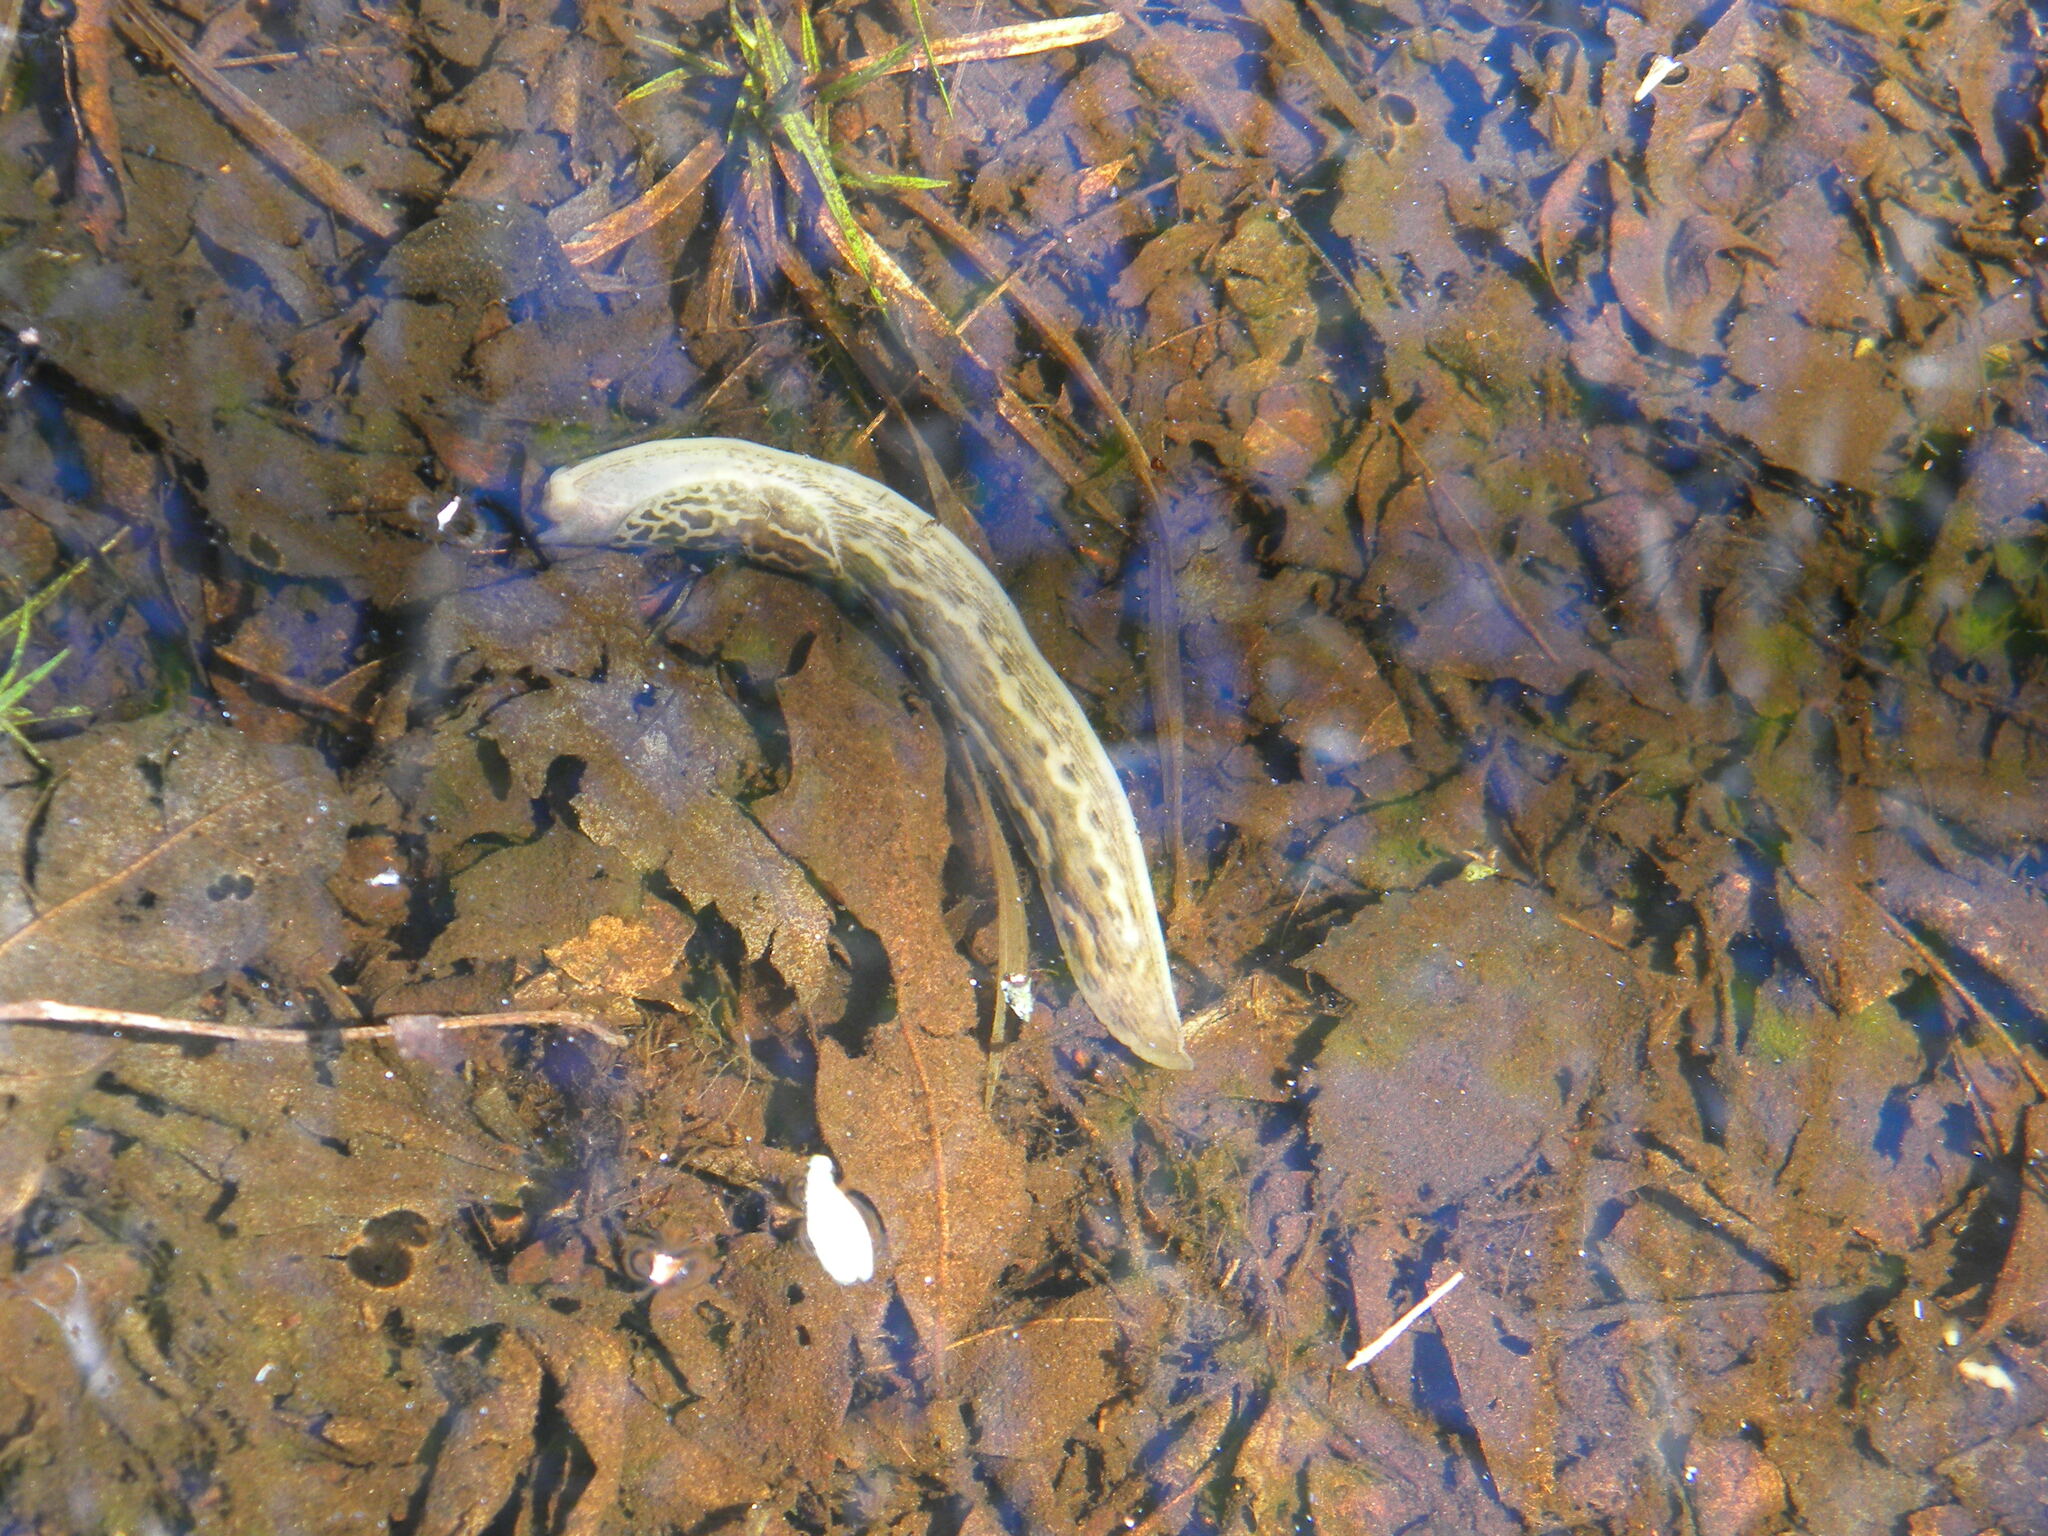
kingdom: Animalia
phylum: Mollusca
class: Gastropoda
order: Stylommatophora
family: Limacidae
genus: Limax
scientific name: Limax maximus
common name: Great grey slug
